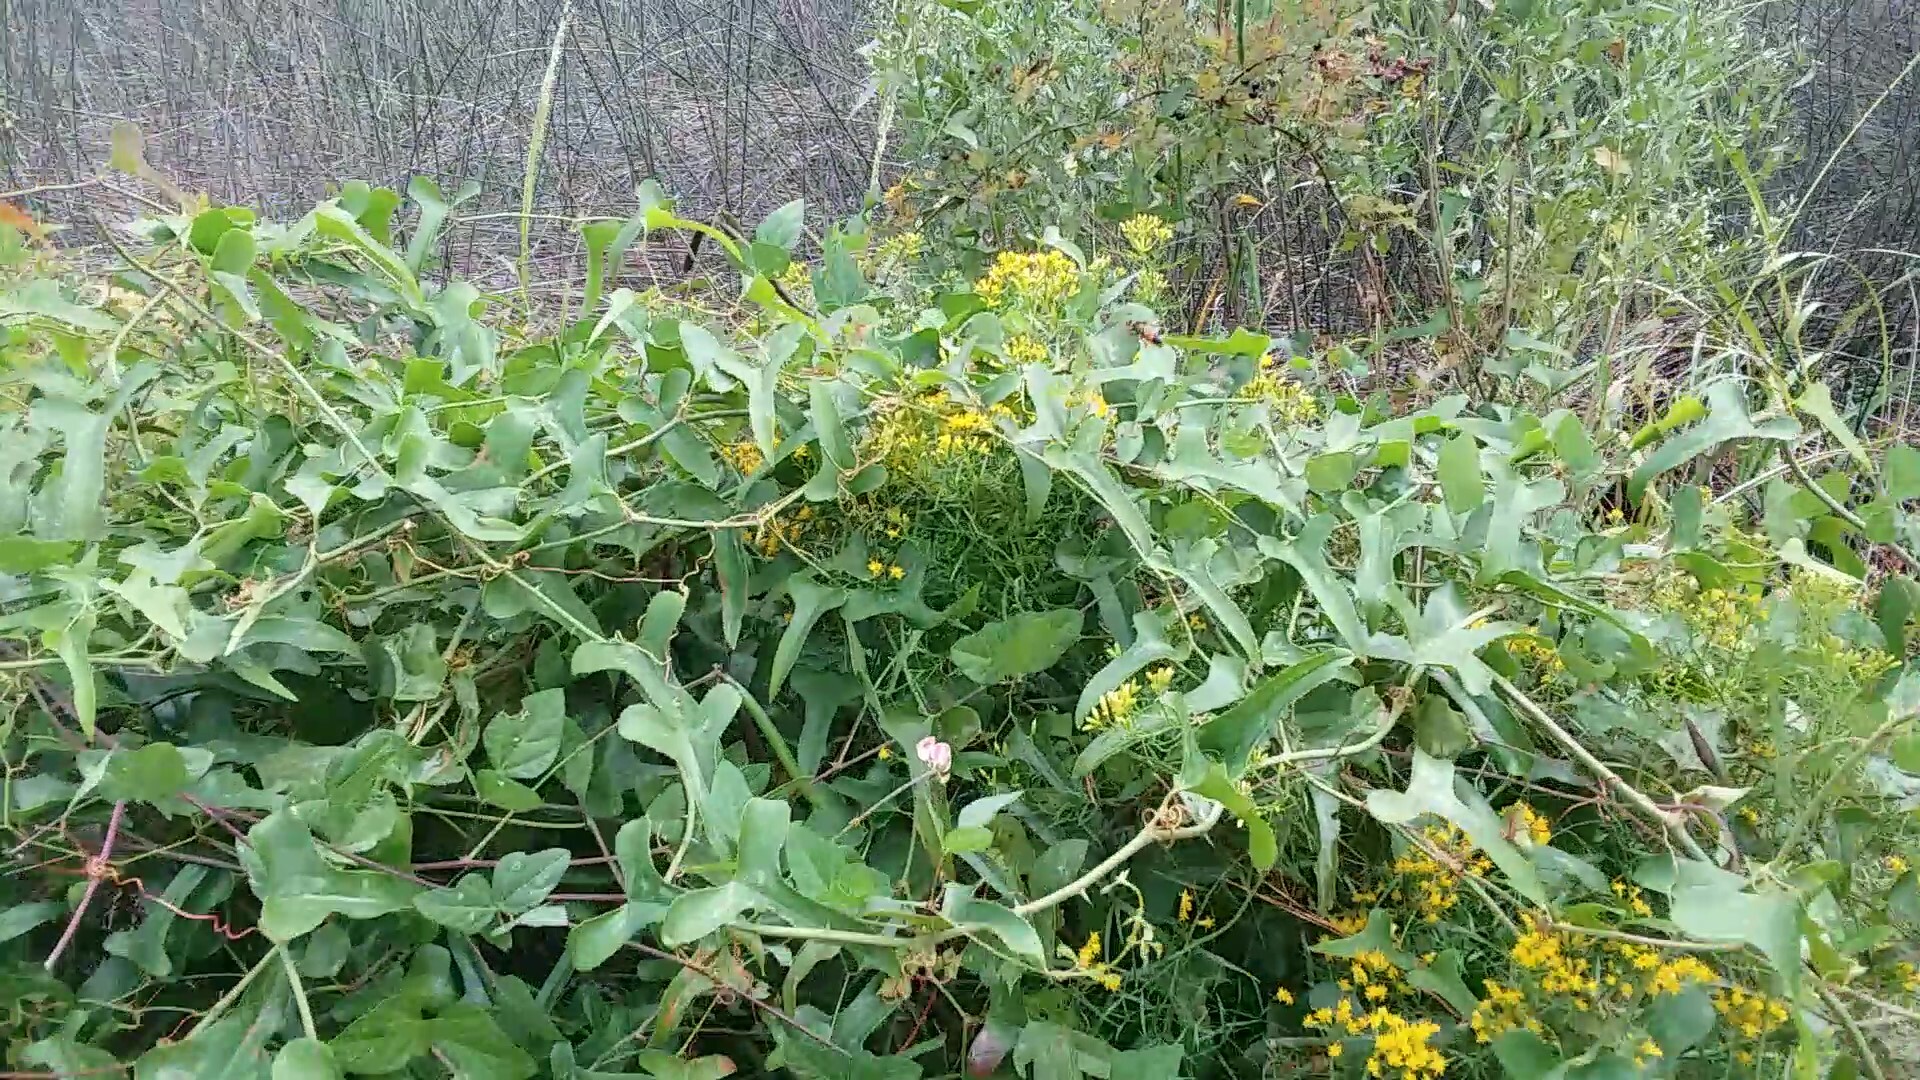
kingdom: Animalia
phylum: Arthropoda
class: Insecta
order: Hymenoptera
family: Sphecidae
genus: Sphex
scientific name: Sphex ichneumoneus
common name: Great golden digger wasp
